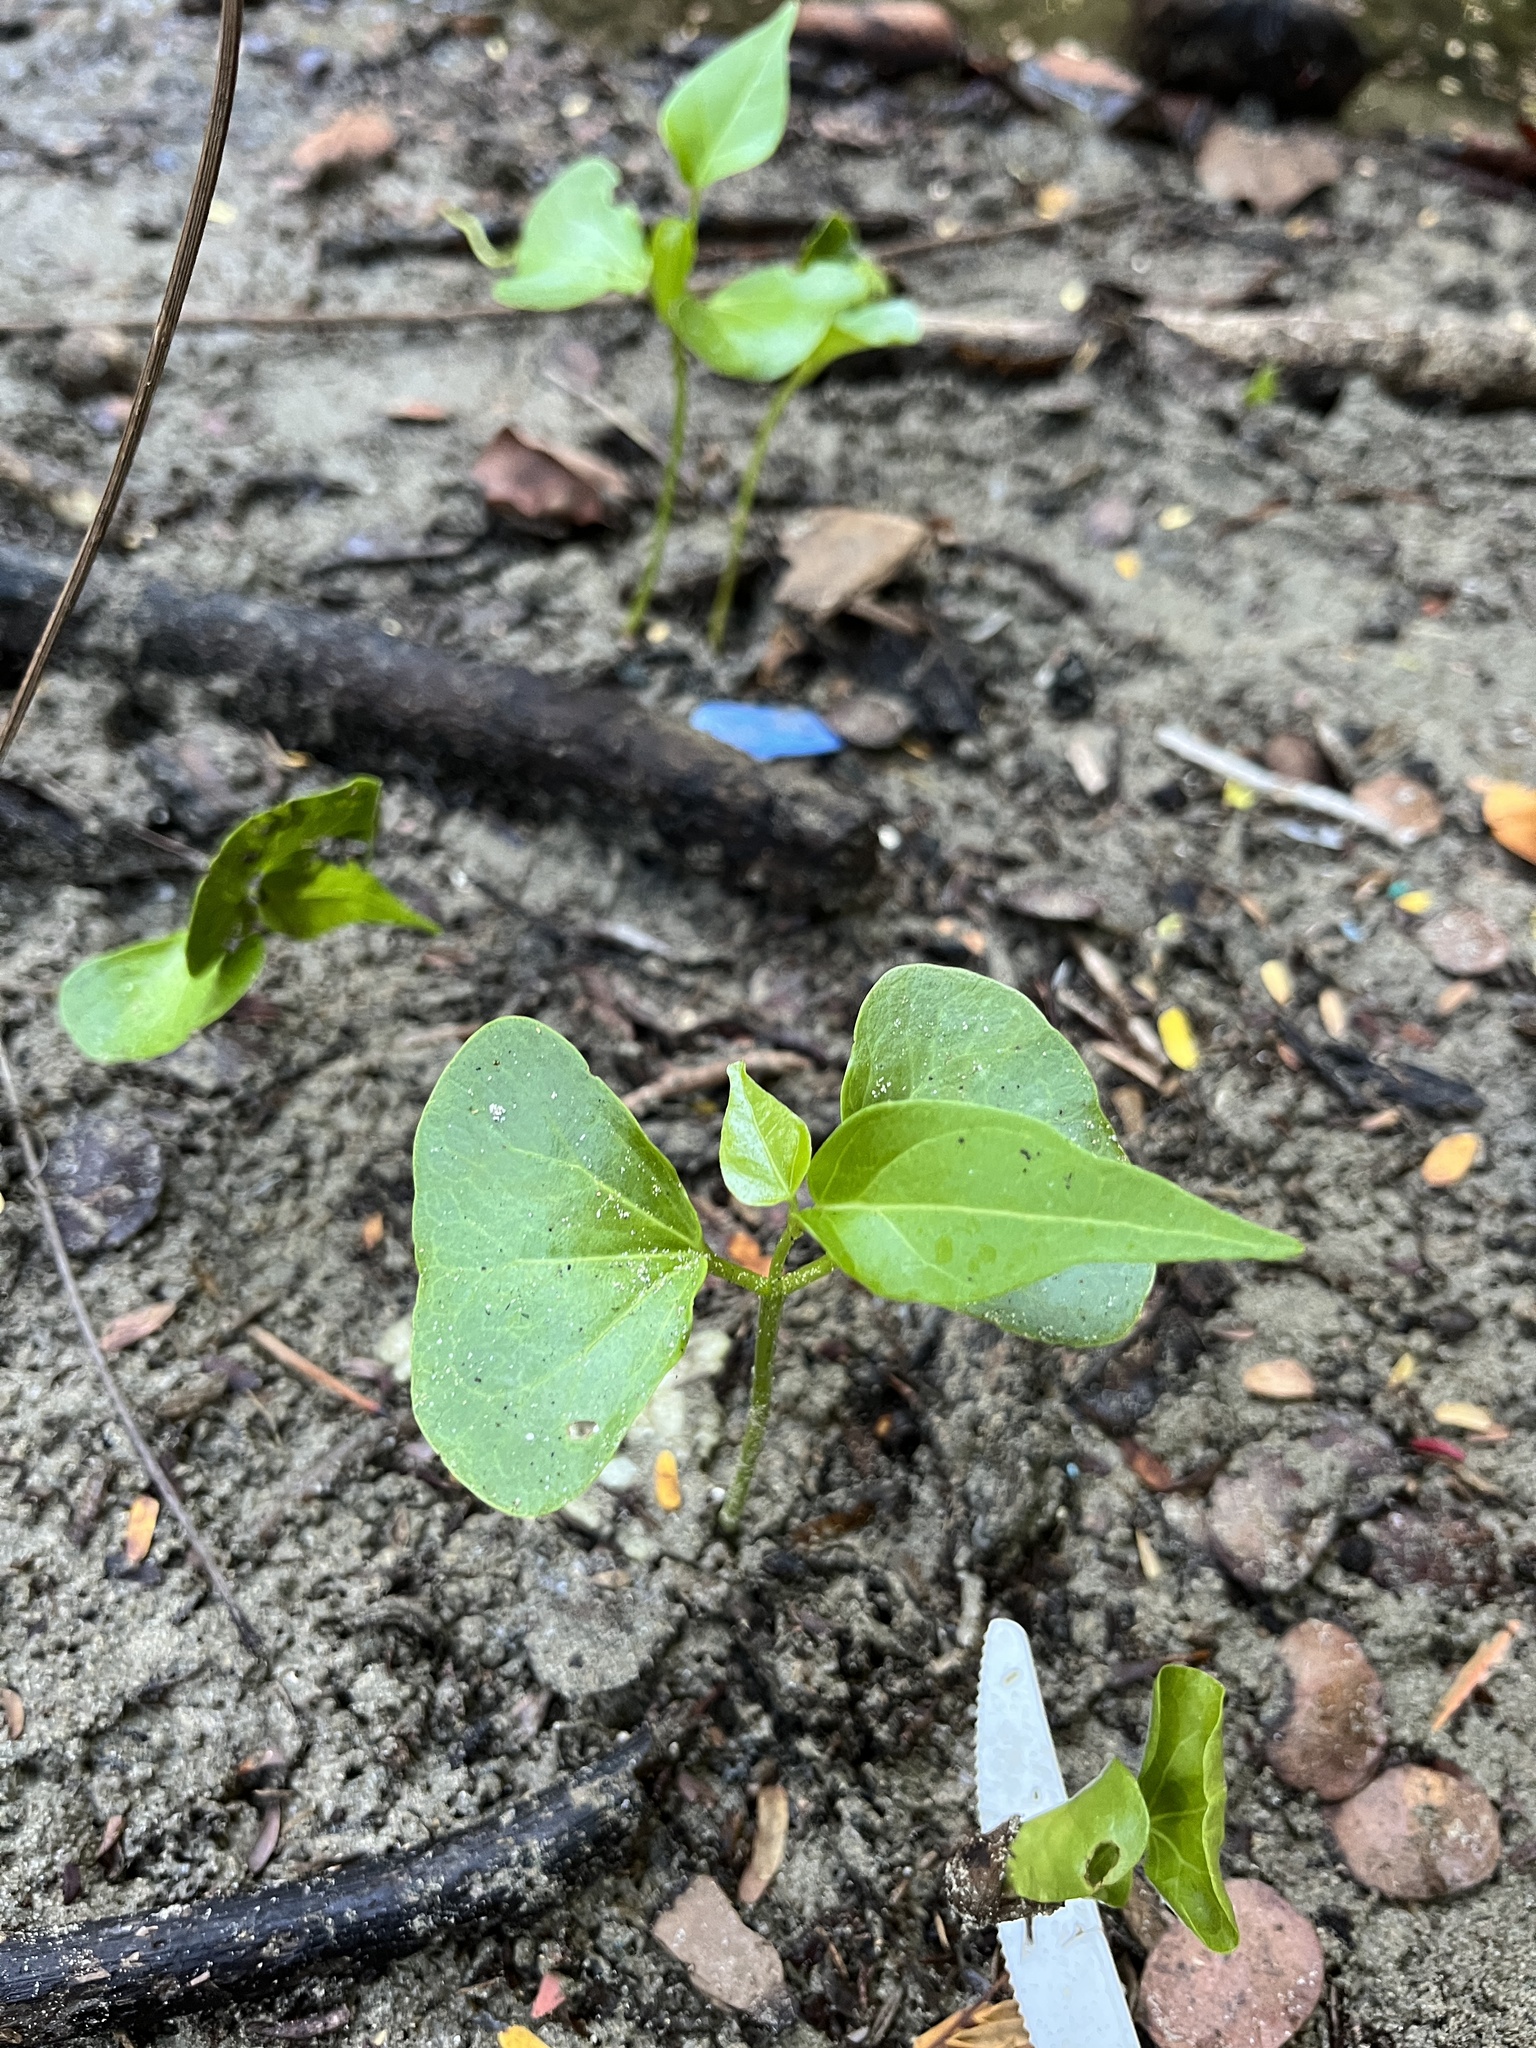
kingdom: Plantae
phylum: Tracheophyta
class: Magnoliopsida
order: Malvales
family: Malvaceae
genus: Thespesia
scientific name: Thespesia populnea
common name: Seaside mahoe
